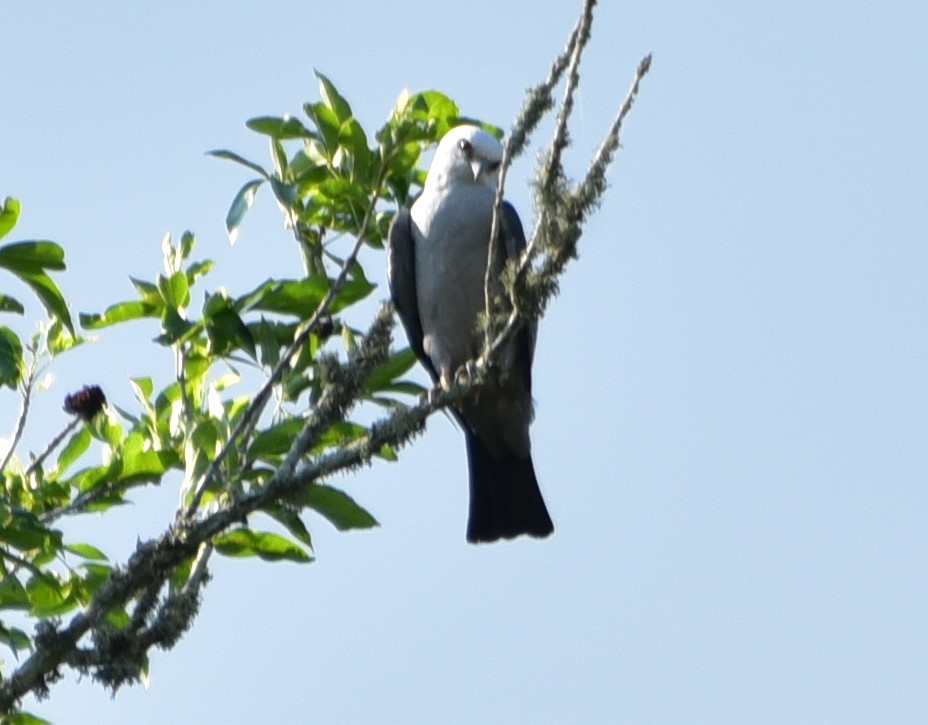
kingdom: Animalia
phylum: Chordata
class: Aves
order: Accipitriformes
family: Accipitridae
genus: Ictinia
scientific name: Ictinia mississippiensis
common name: Mississippi kite
